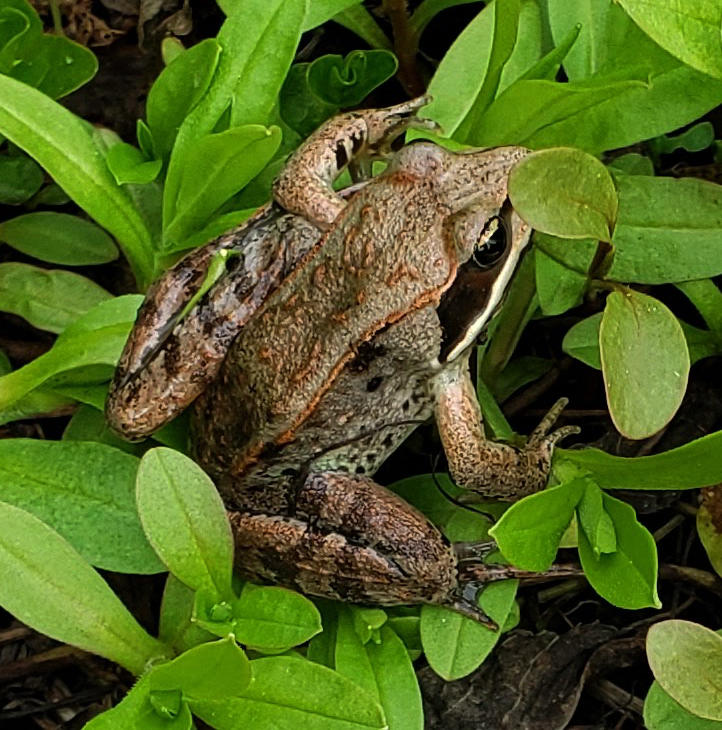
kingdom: Animalia
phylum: Chordata
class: Amphibia
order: Anura
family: Ranidae
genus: Lithobates
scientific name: Lithobates sylvaticus
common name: Wood frog
